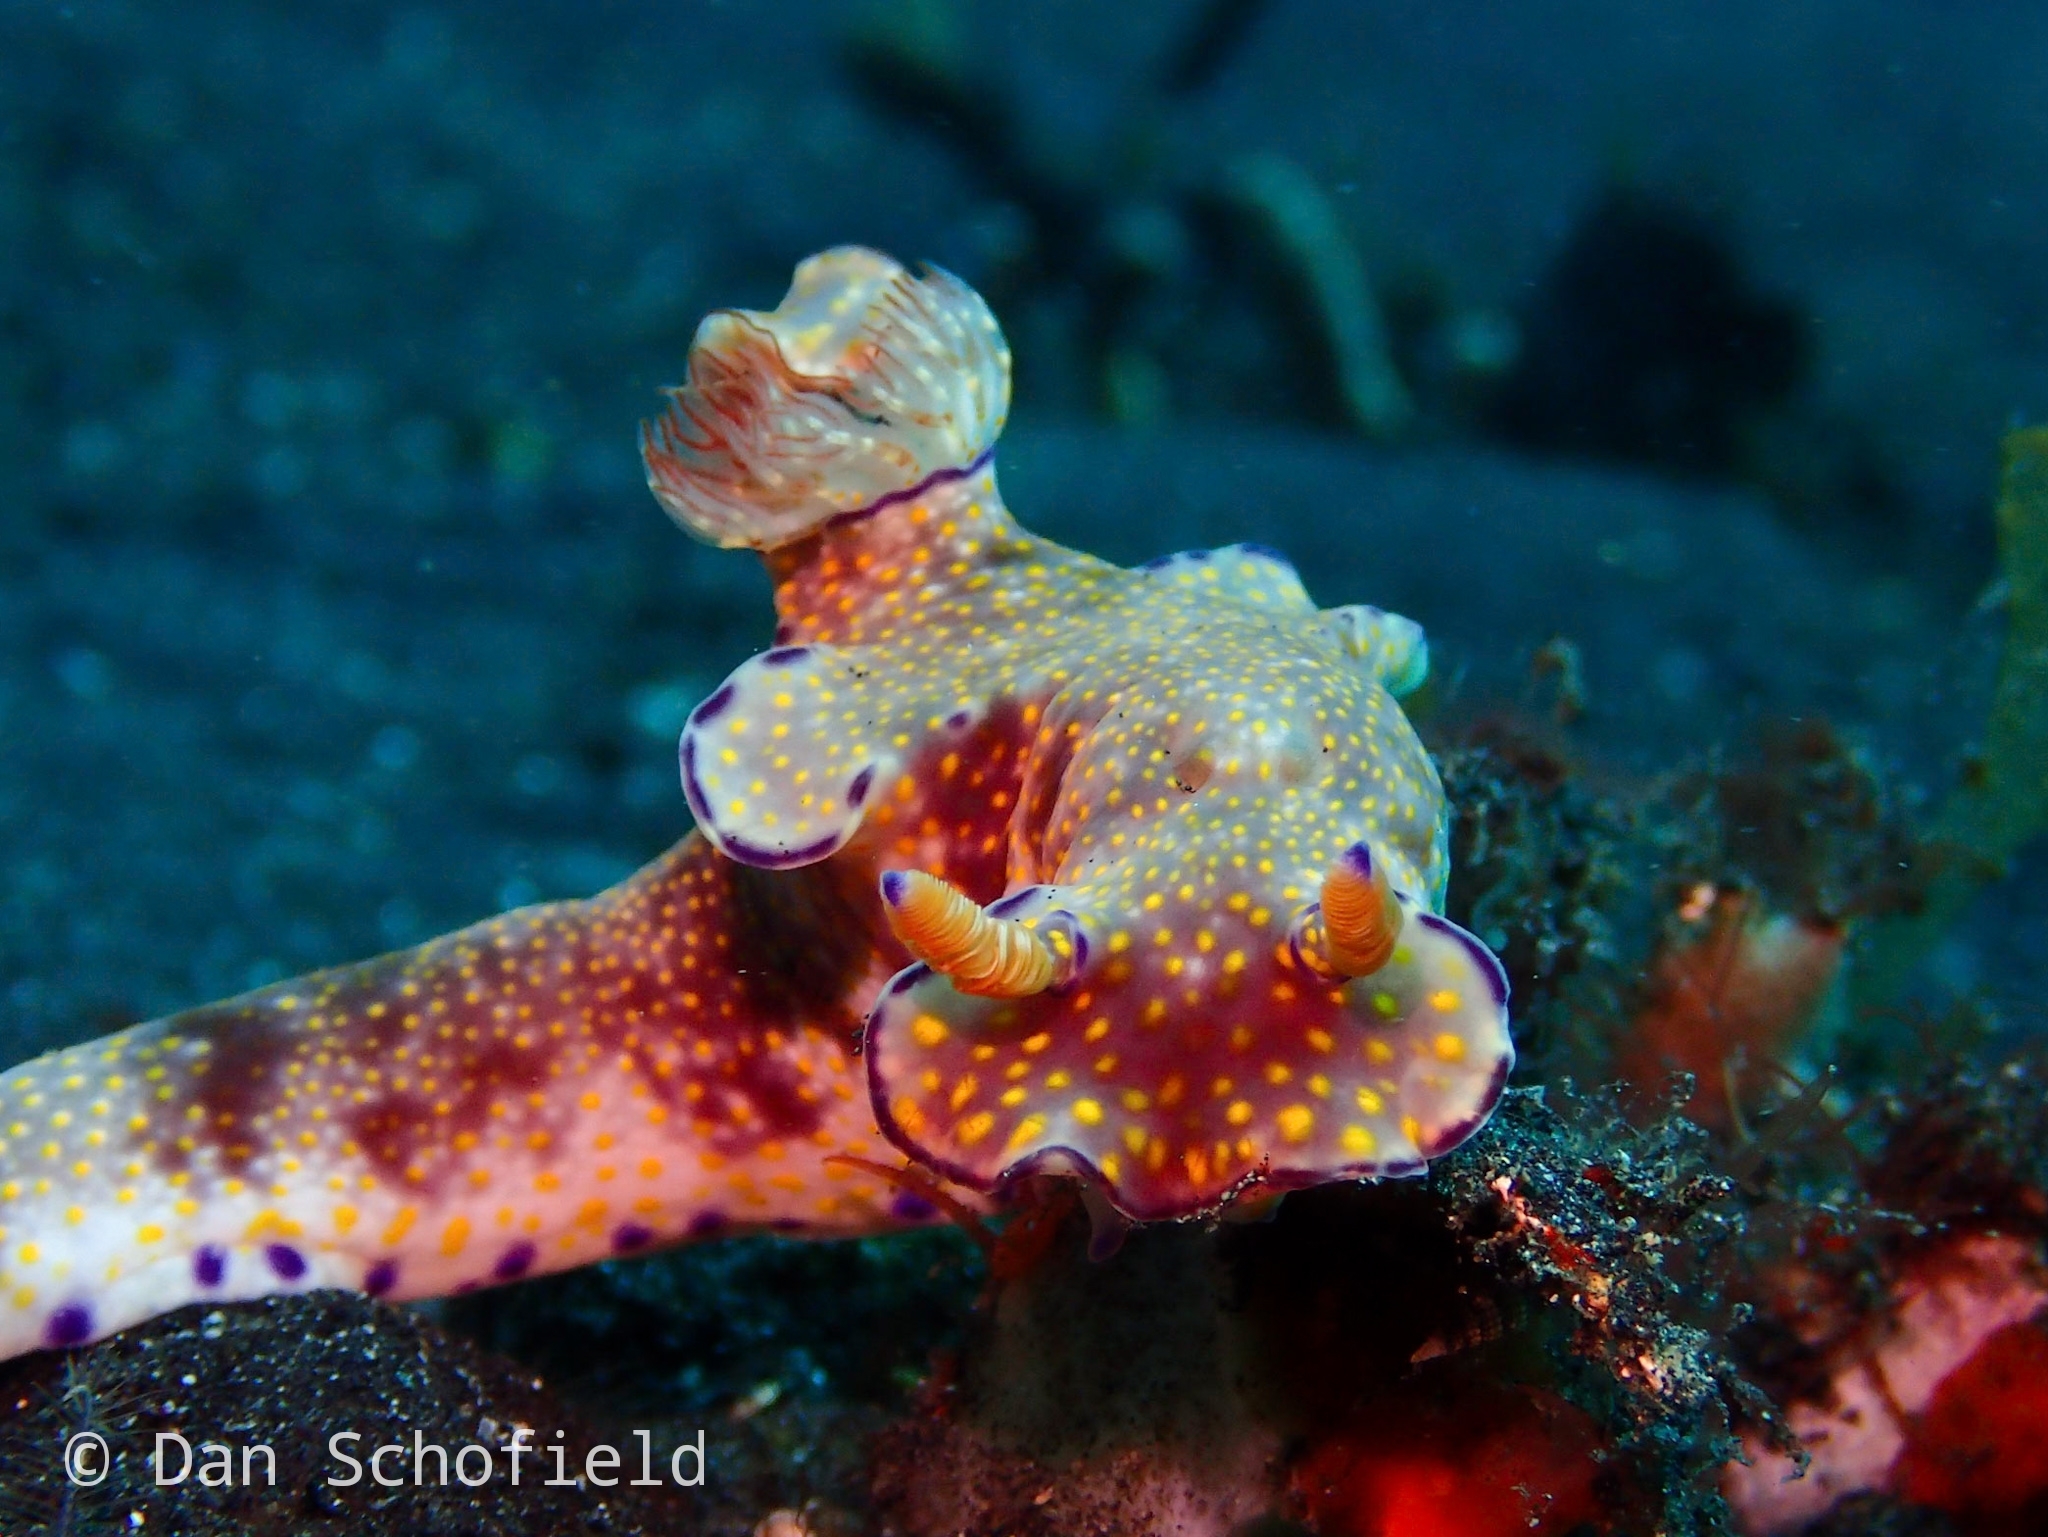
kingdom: Animalia
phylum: Mollusca
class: Gastropoda
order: Nudibranchia
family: Chromodorididae
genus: Ceratosoma
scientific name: Ceratosoma gracillimum
